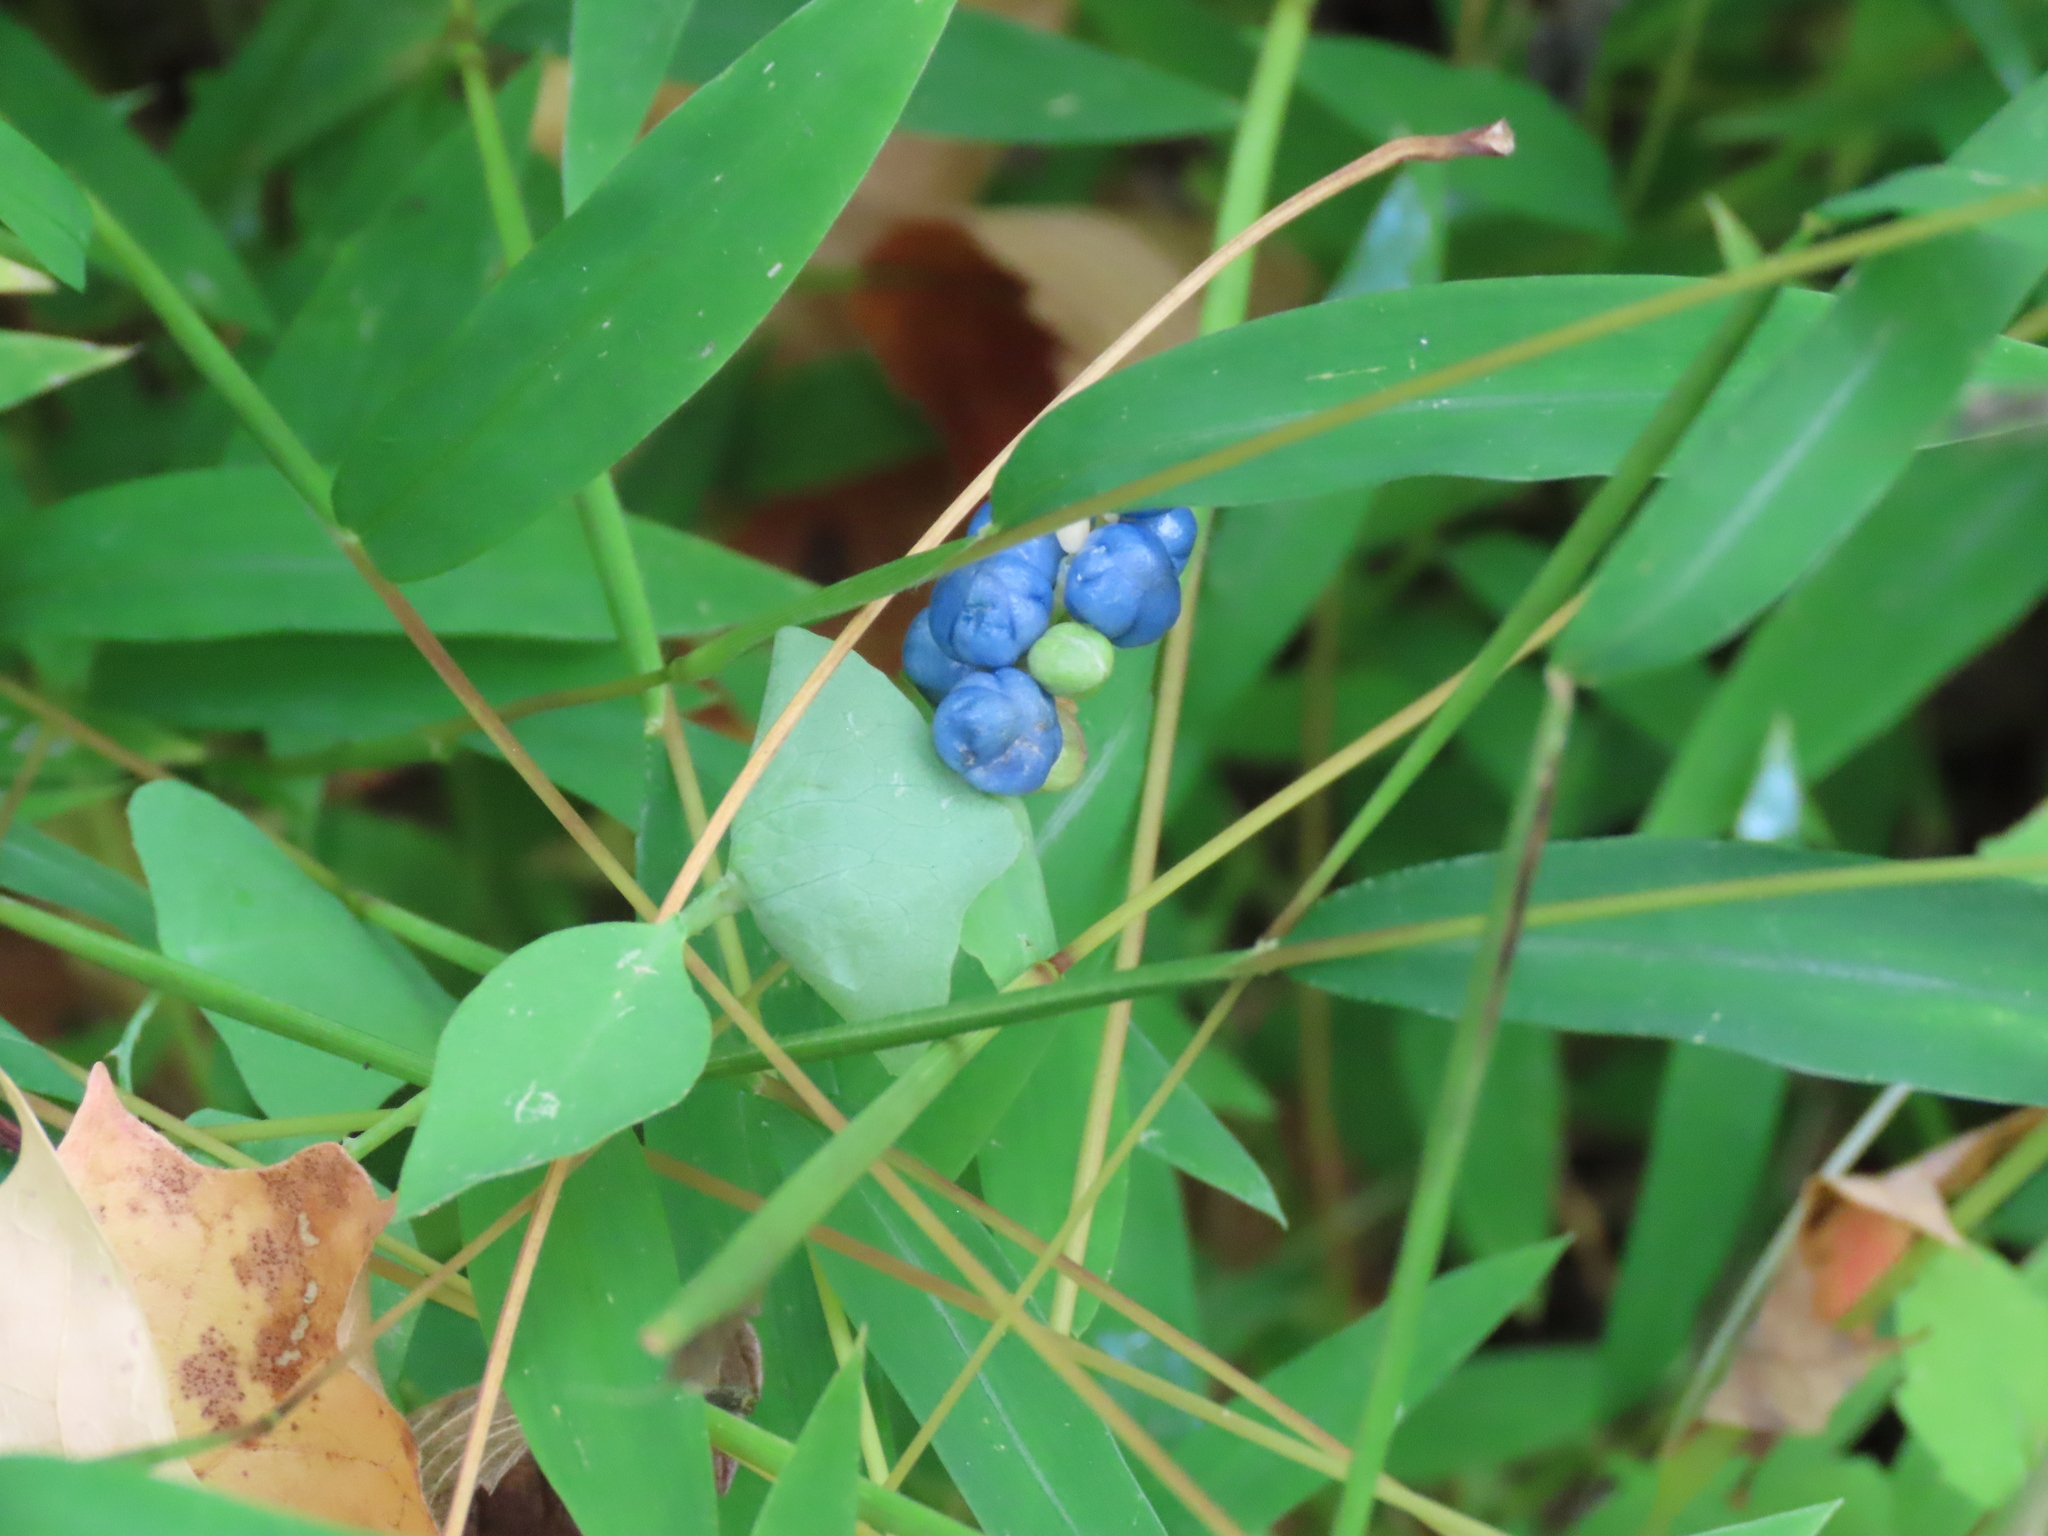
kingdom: Plantae
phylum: Tracheophyta
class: Magnoliopsida
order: Caryophyllales
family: Polygonaceae
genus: Persicaria
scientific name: Persicaria perfoliata
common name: Asiatic tearthumb
